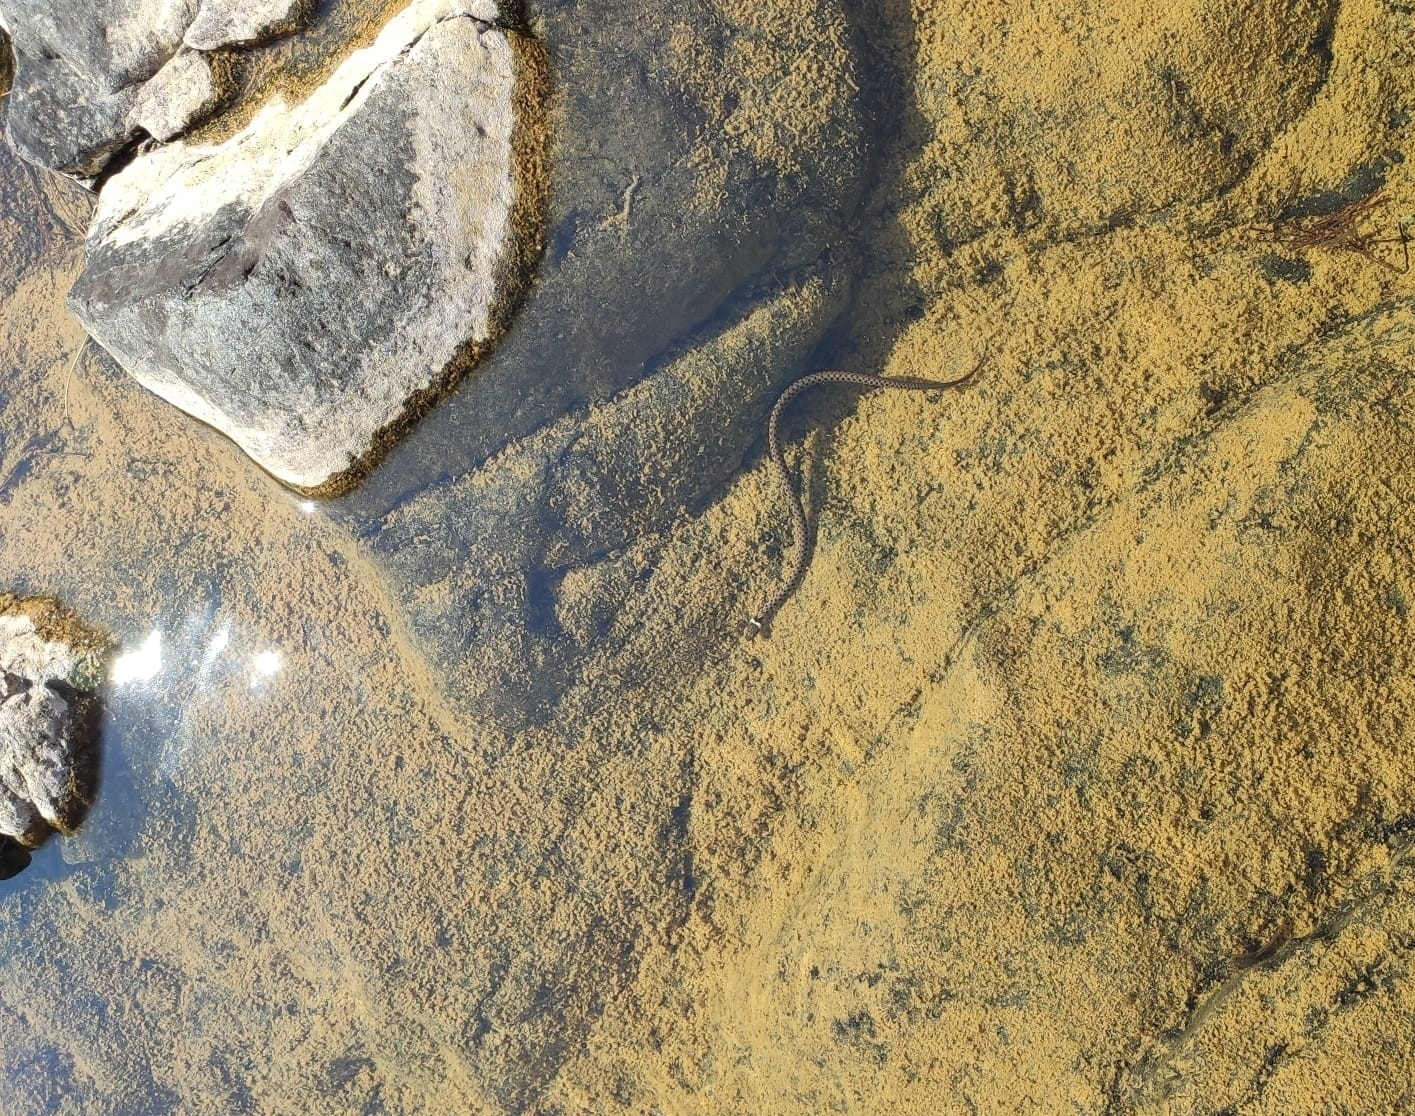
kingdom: Animalia
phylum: Chordata
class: Squamata
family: Colubridae
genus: Natrix
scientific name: Natrix helvetica
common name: Banded grass snake
